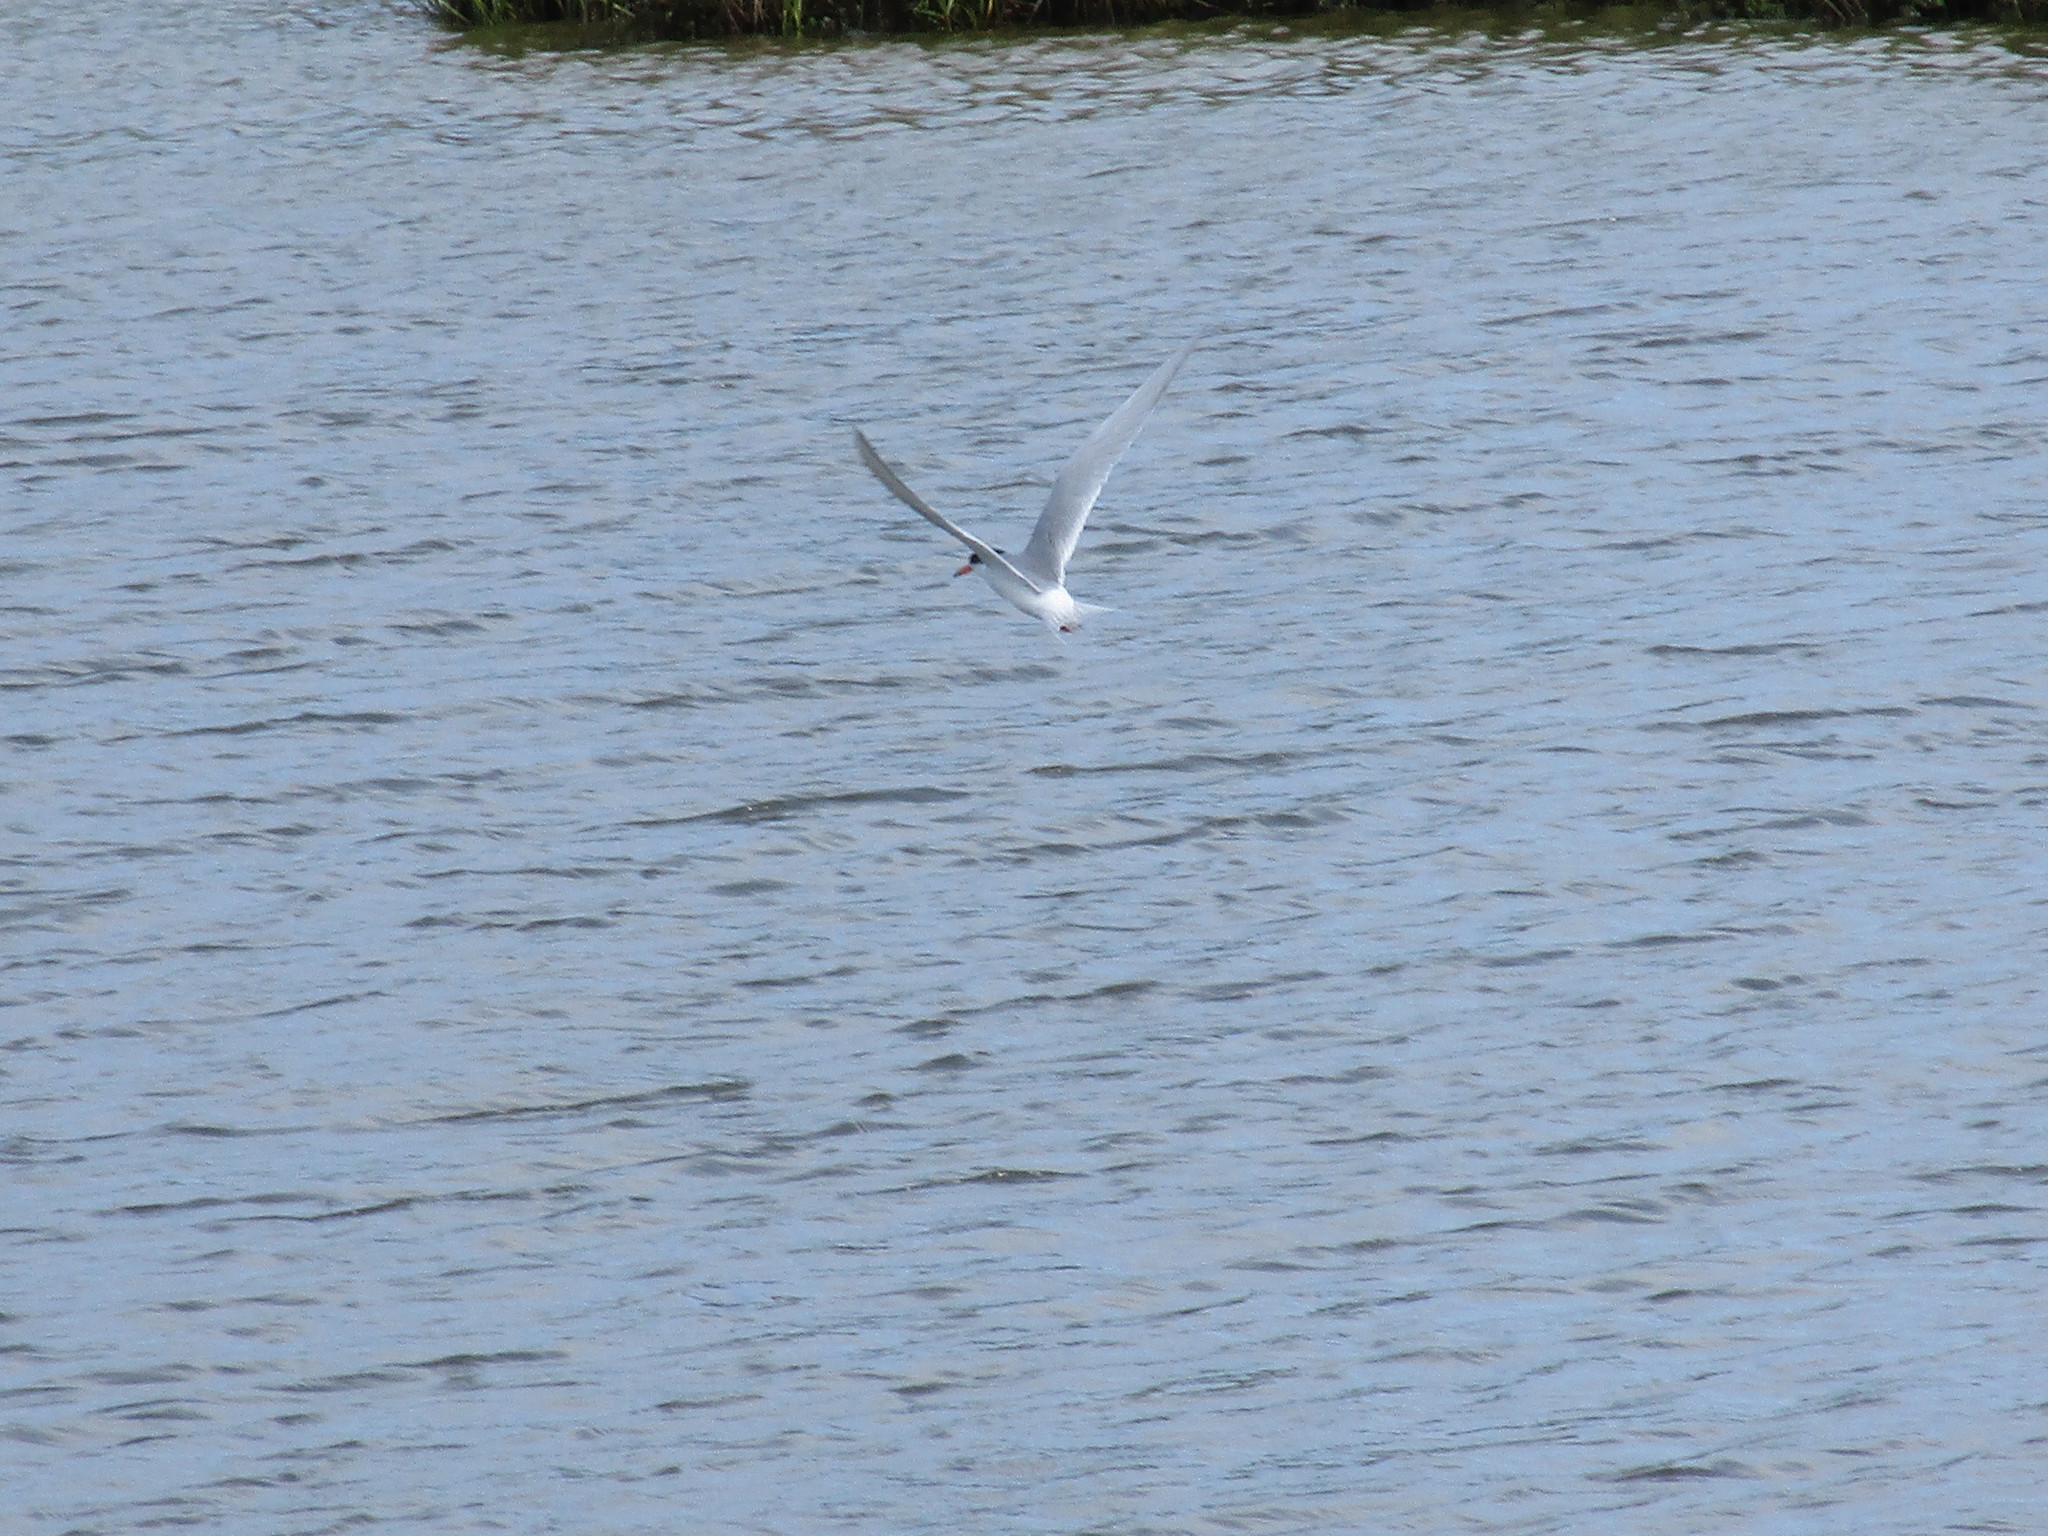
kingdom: Animalia
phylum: Chordata
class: Aves
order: Charadriiformes
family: Laridae
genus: Sterna
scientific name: Sterna forsteri
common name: Forster's tern
